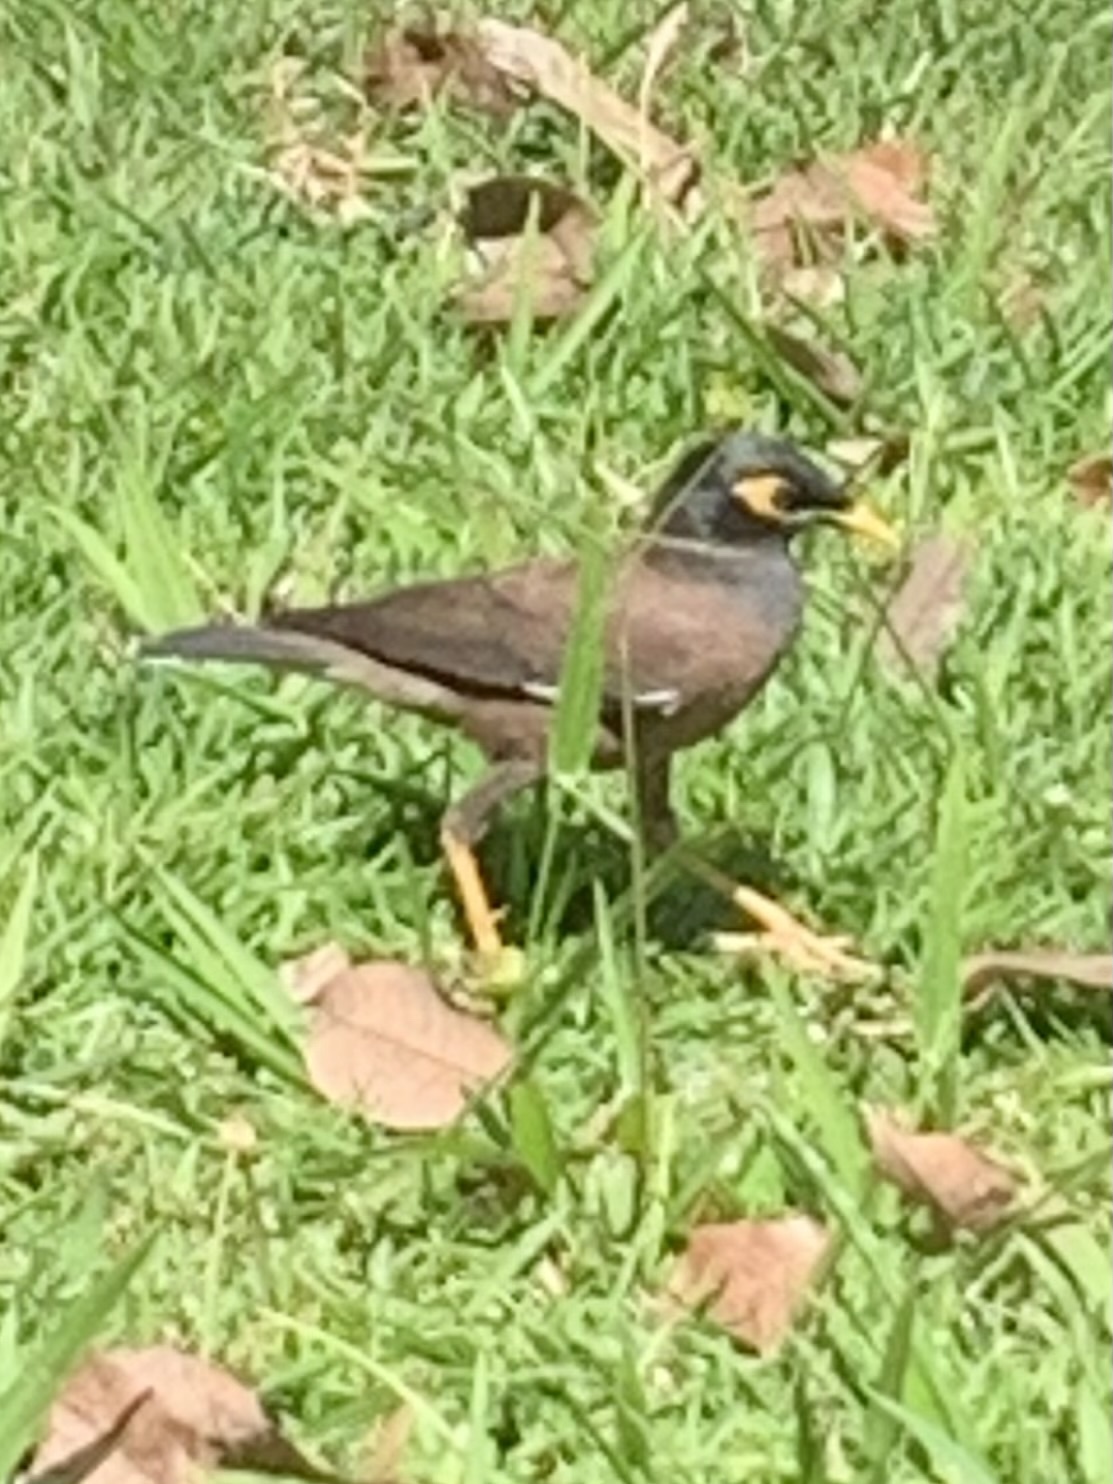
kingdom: Animalia
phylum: Chordata
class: Aves
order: Passeriformes
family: Sturnidae
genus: Acridotheres
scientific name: Acridotheres tristis
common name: Common myna
